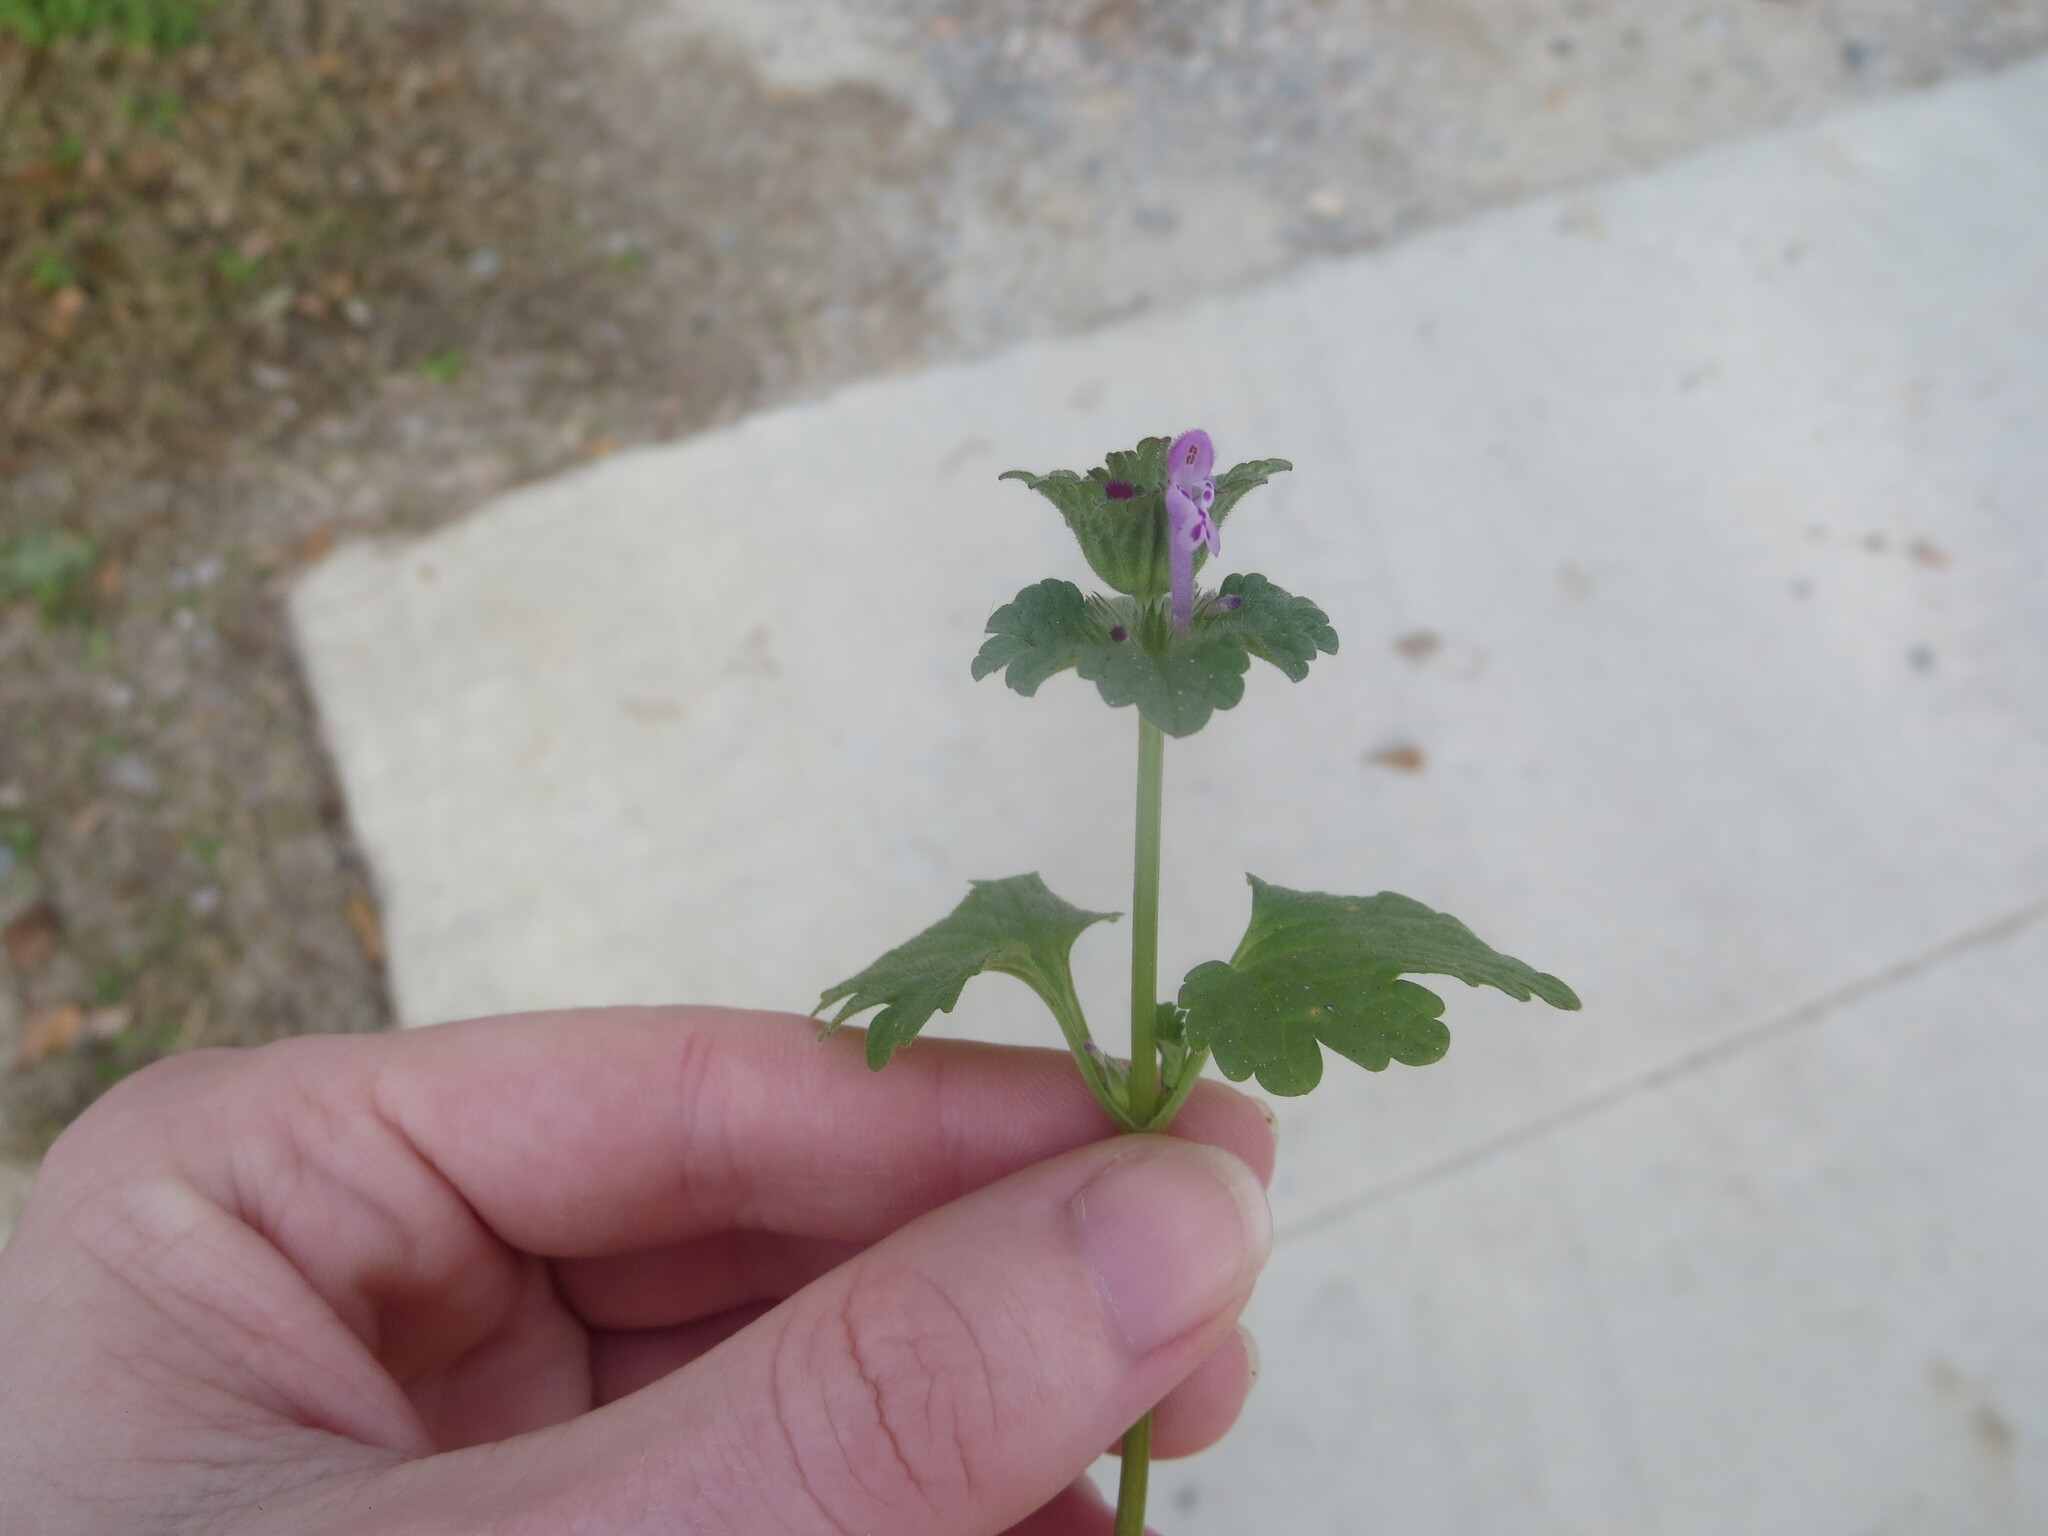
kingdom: Plantae
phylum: Tracheophyta
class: Magnoliopsida
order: Lamiales
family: Lamiaceae
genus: Lamium
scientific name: Lamium amplexicaule
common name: Henbit dead-nettle
